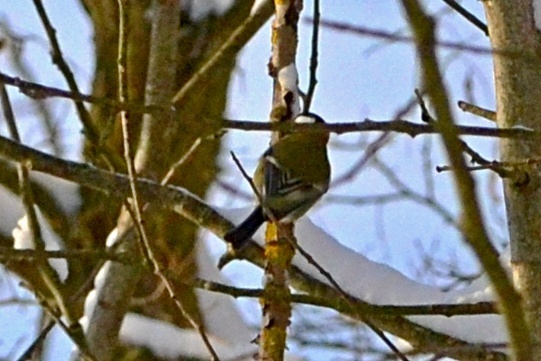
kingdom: Animalia
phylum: Chordata
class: Aves
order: Passeriformes
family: Paridae
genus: Parus
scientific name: Parus major
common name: Great tit
